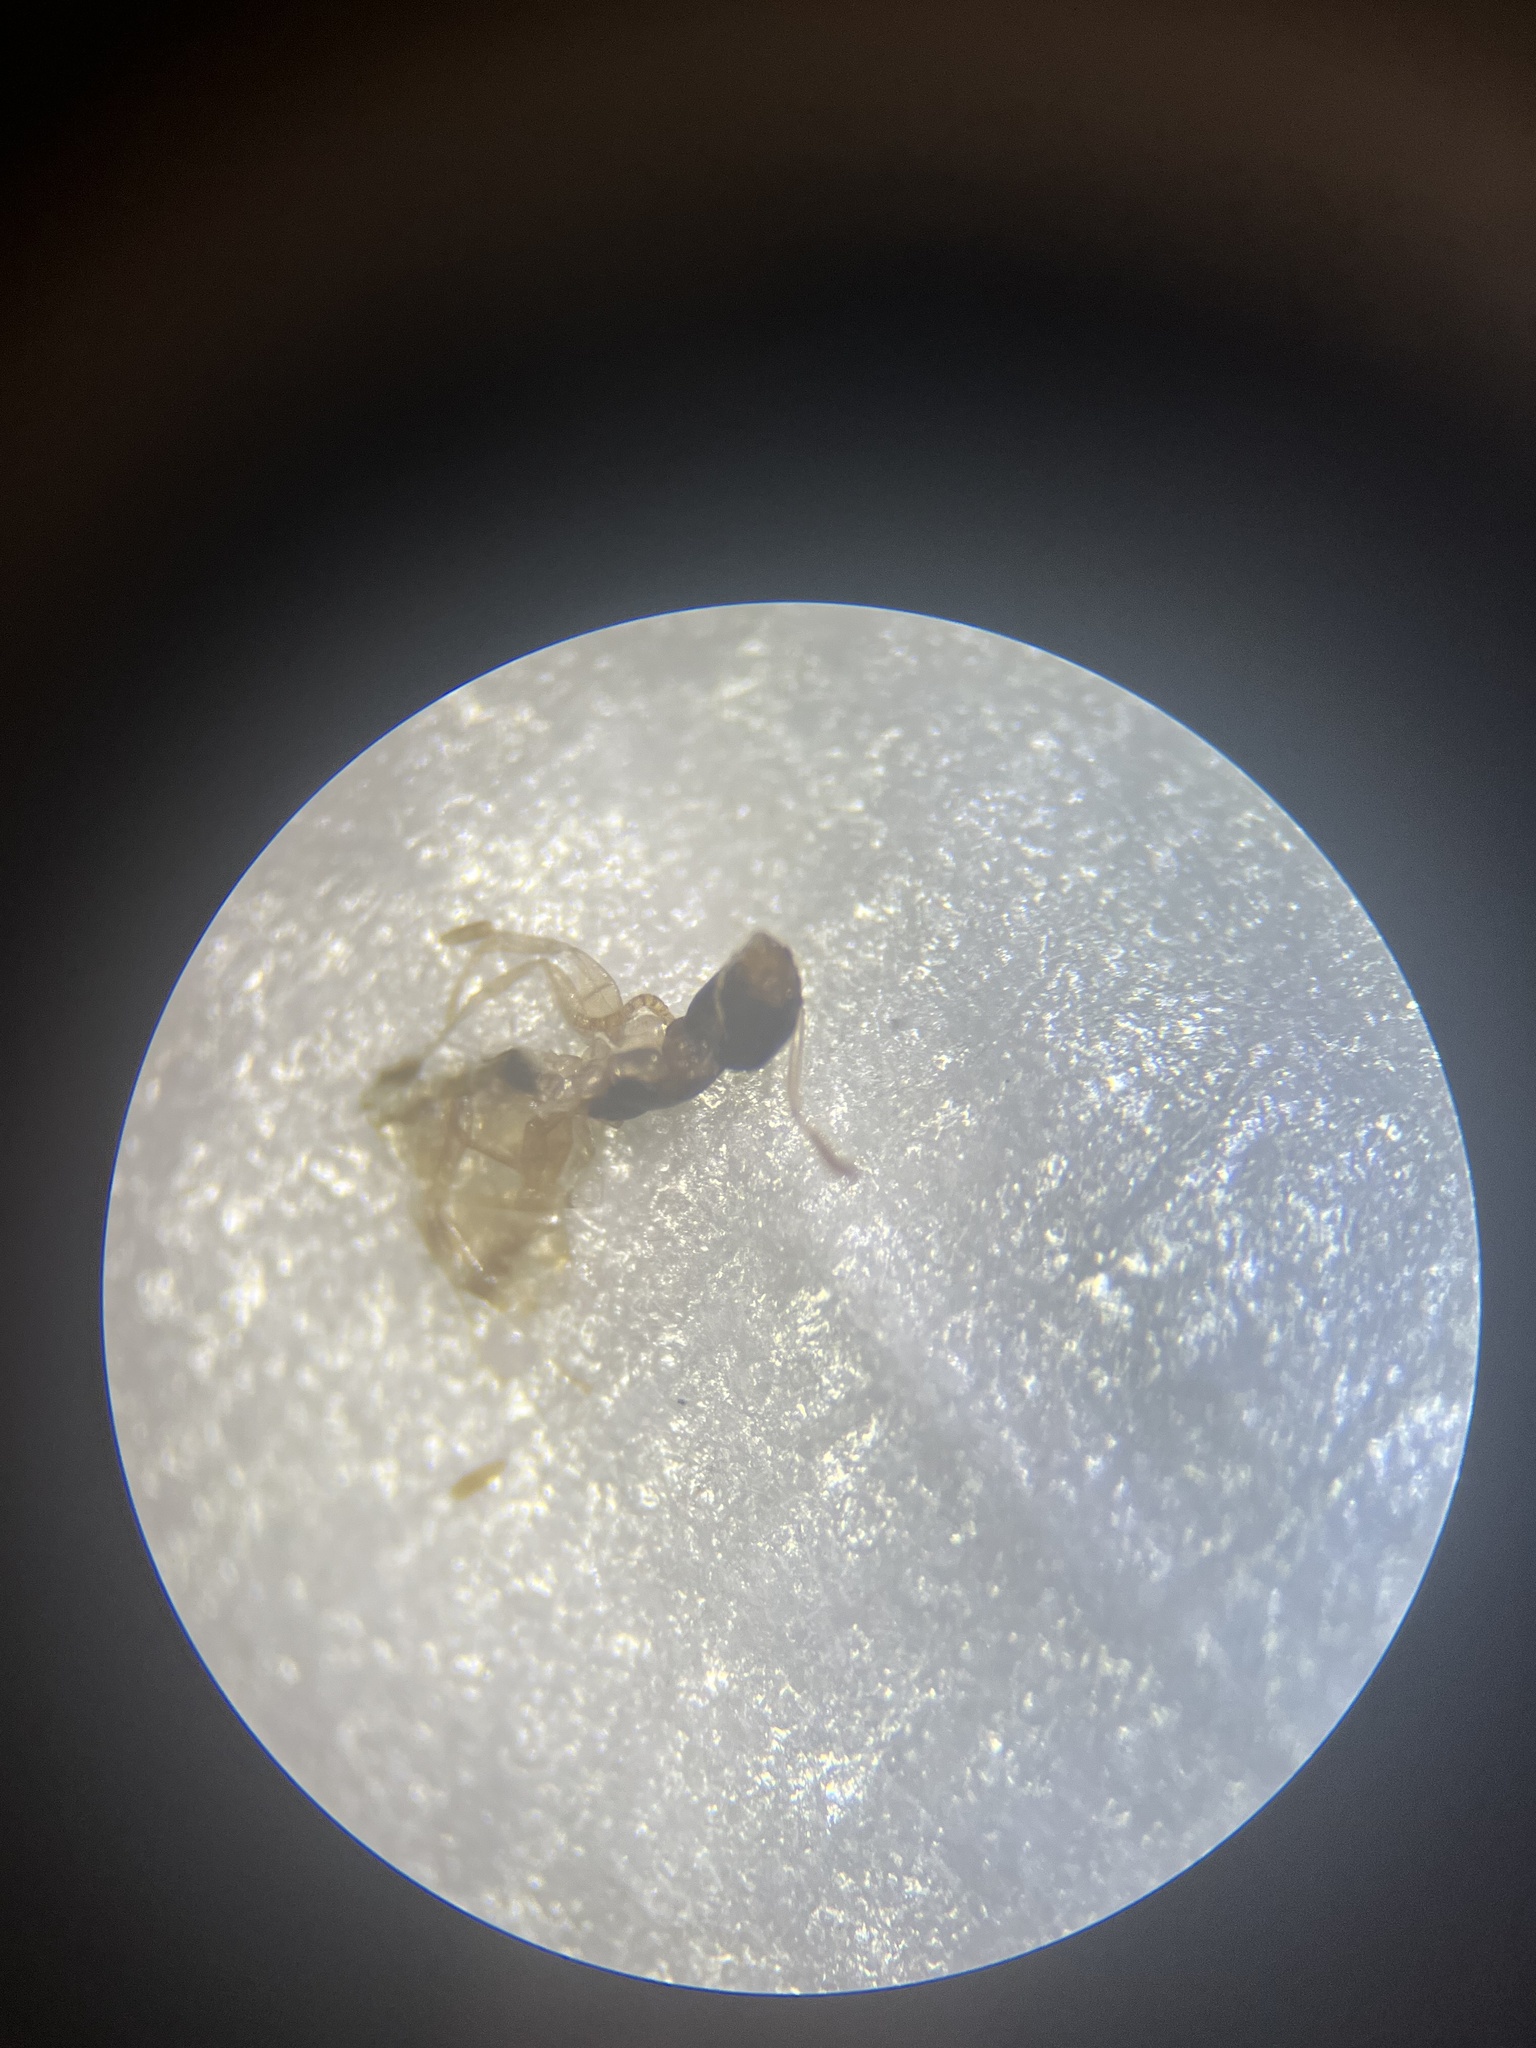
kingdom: Animalia
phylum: Arthropoda
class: Insecta
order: Hymenoptera
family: Formicidae
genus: Tapinoma
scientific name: Tapinoma melanocephalum
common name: Ghost ant
